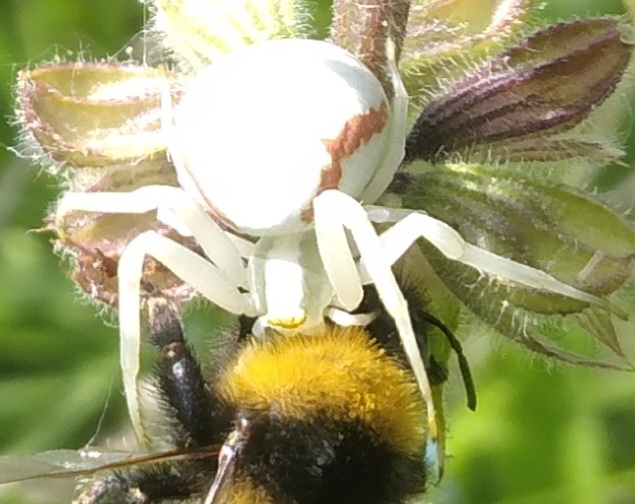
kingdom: Animalia
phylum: Arthropoda
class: Arachnida
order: Araneae
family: Thomisidae
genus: Misumena
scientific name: Misumena vatia
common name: Goldenrod crab spider
